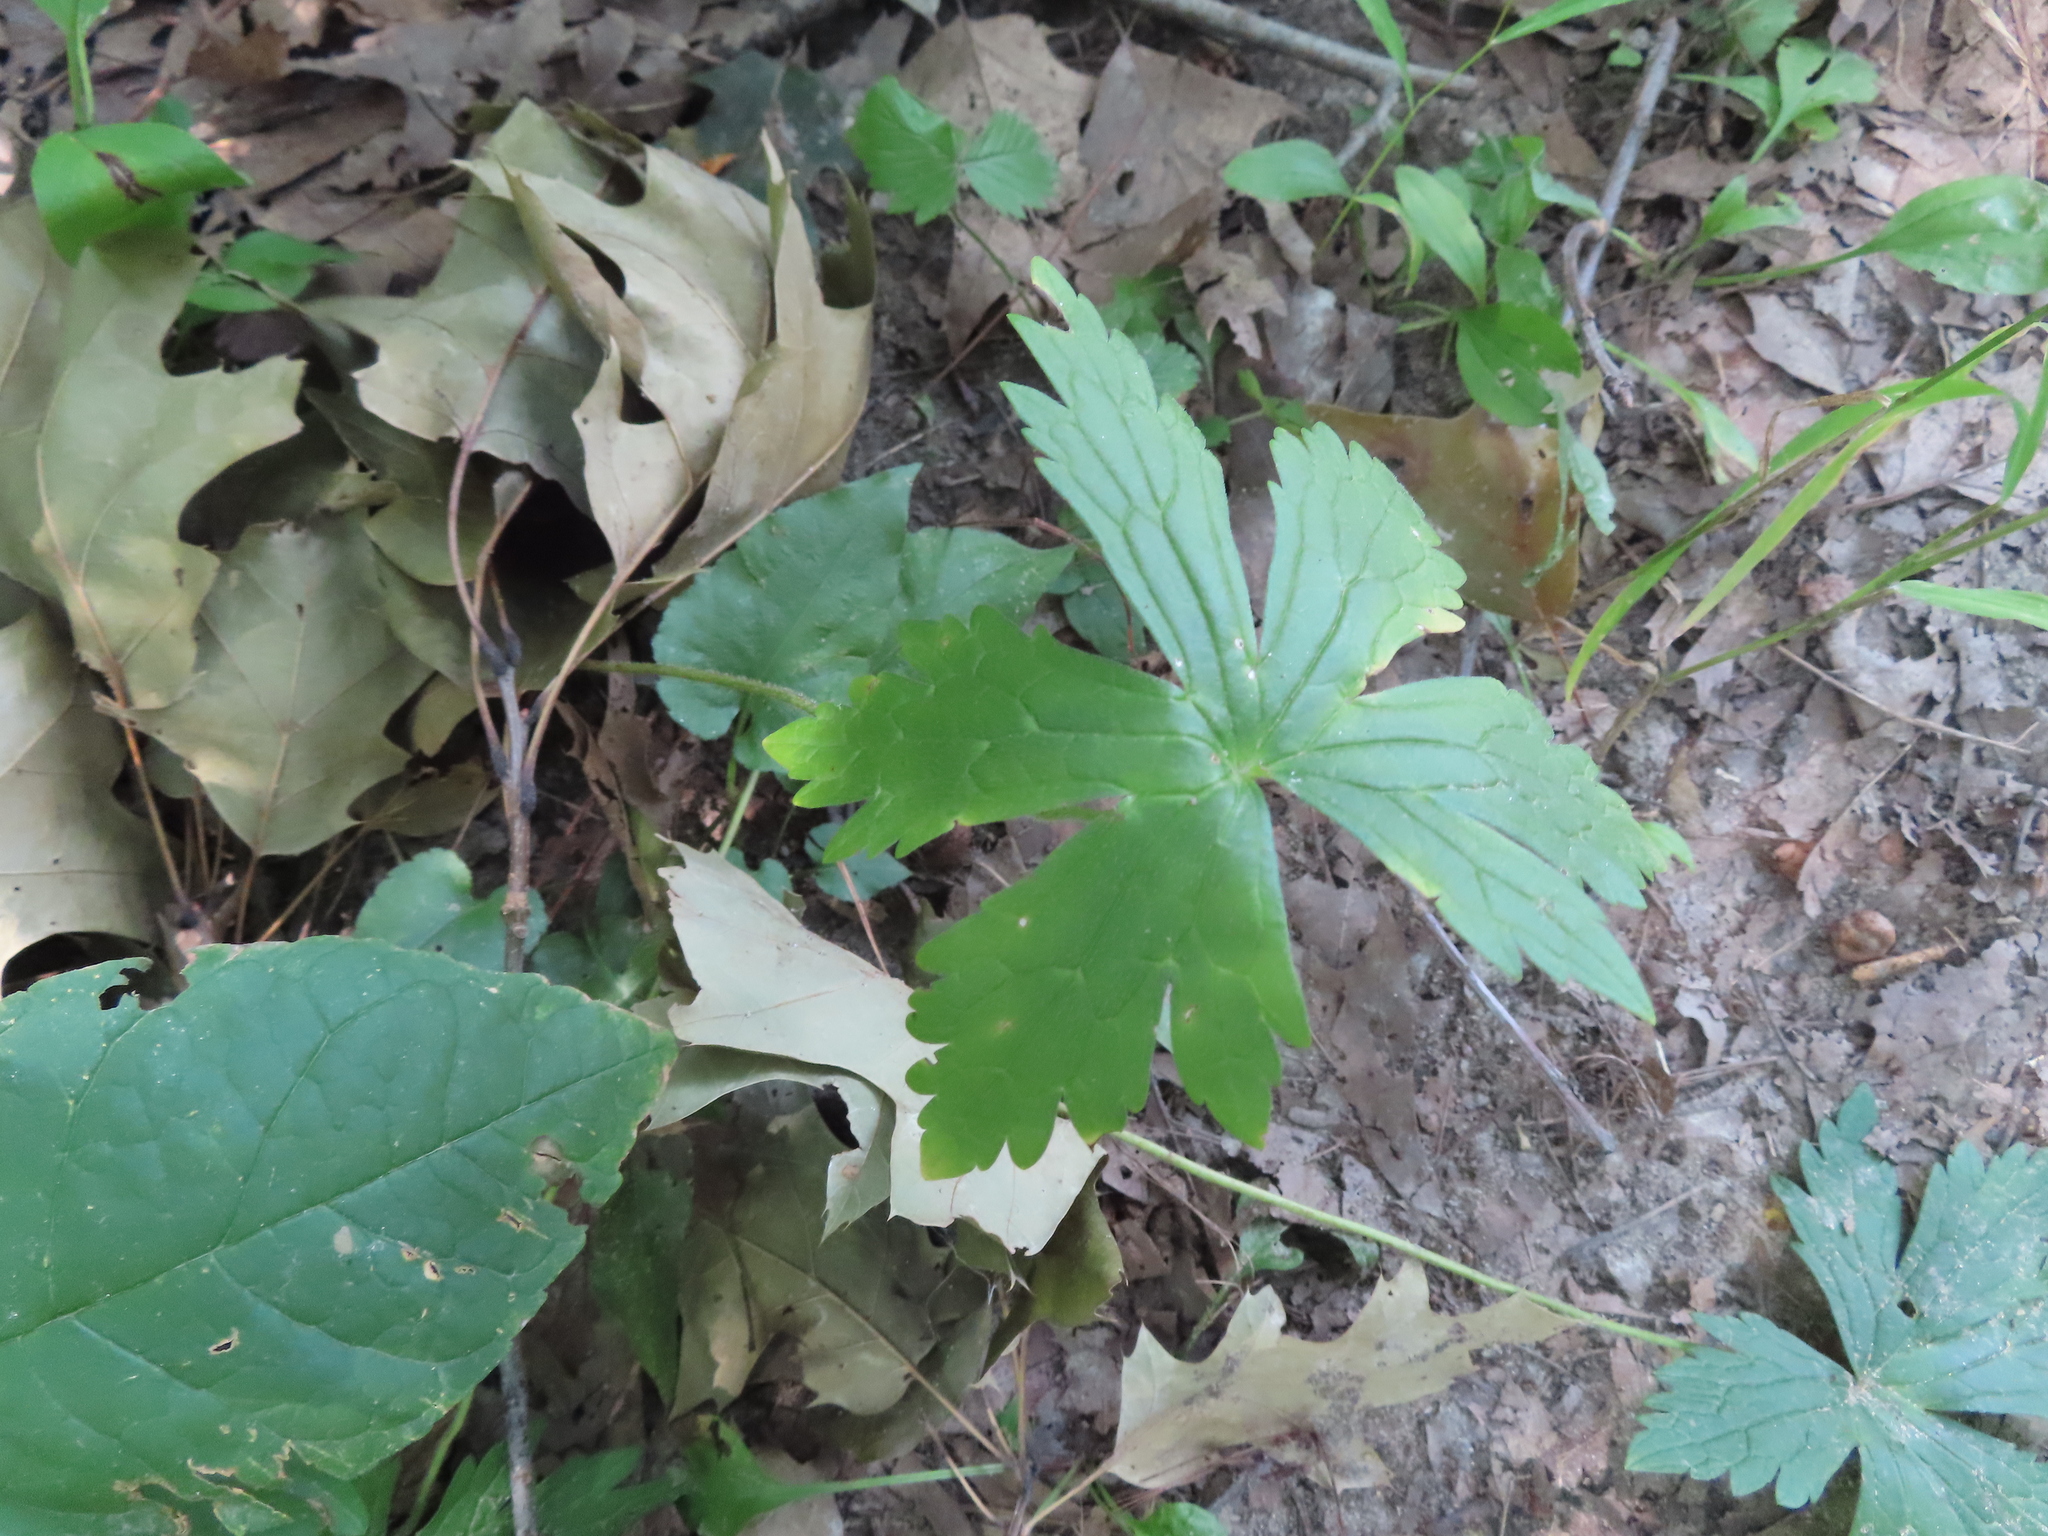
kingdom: Plantae
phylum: Tracheophyta
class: Magnoliopsida
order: Geraniales
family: Geraniaceae
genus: Geranium
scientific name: Geranium maculatum
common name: Spotted geranium
